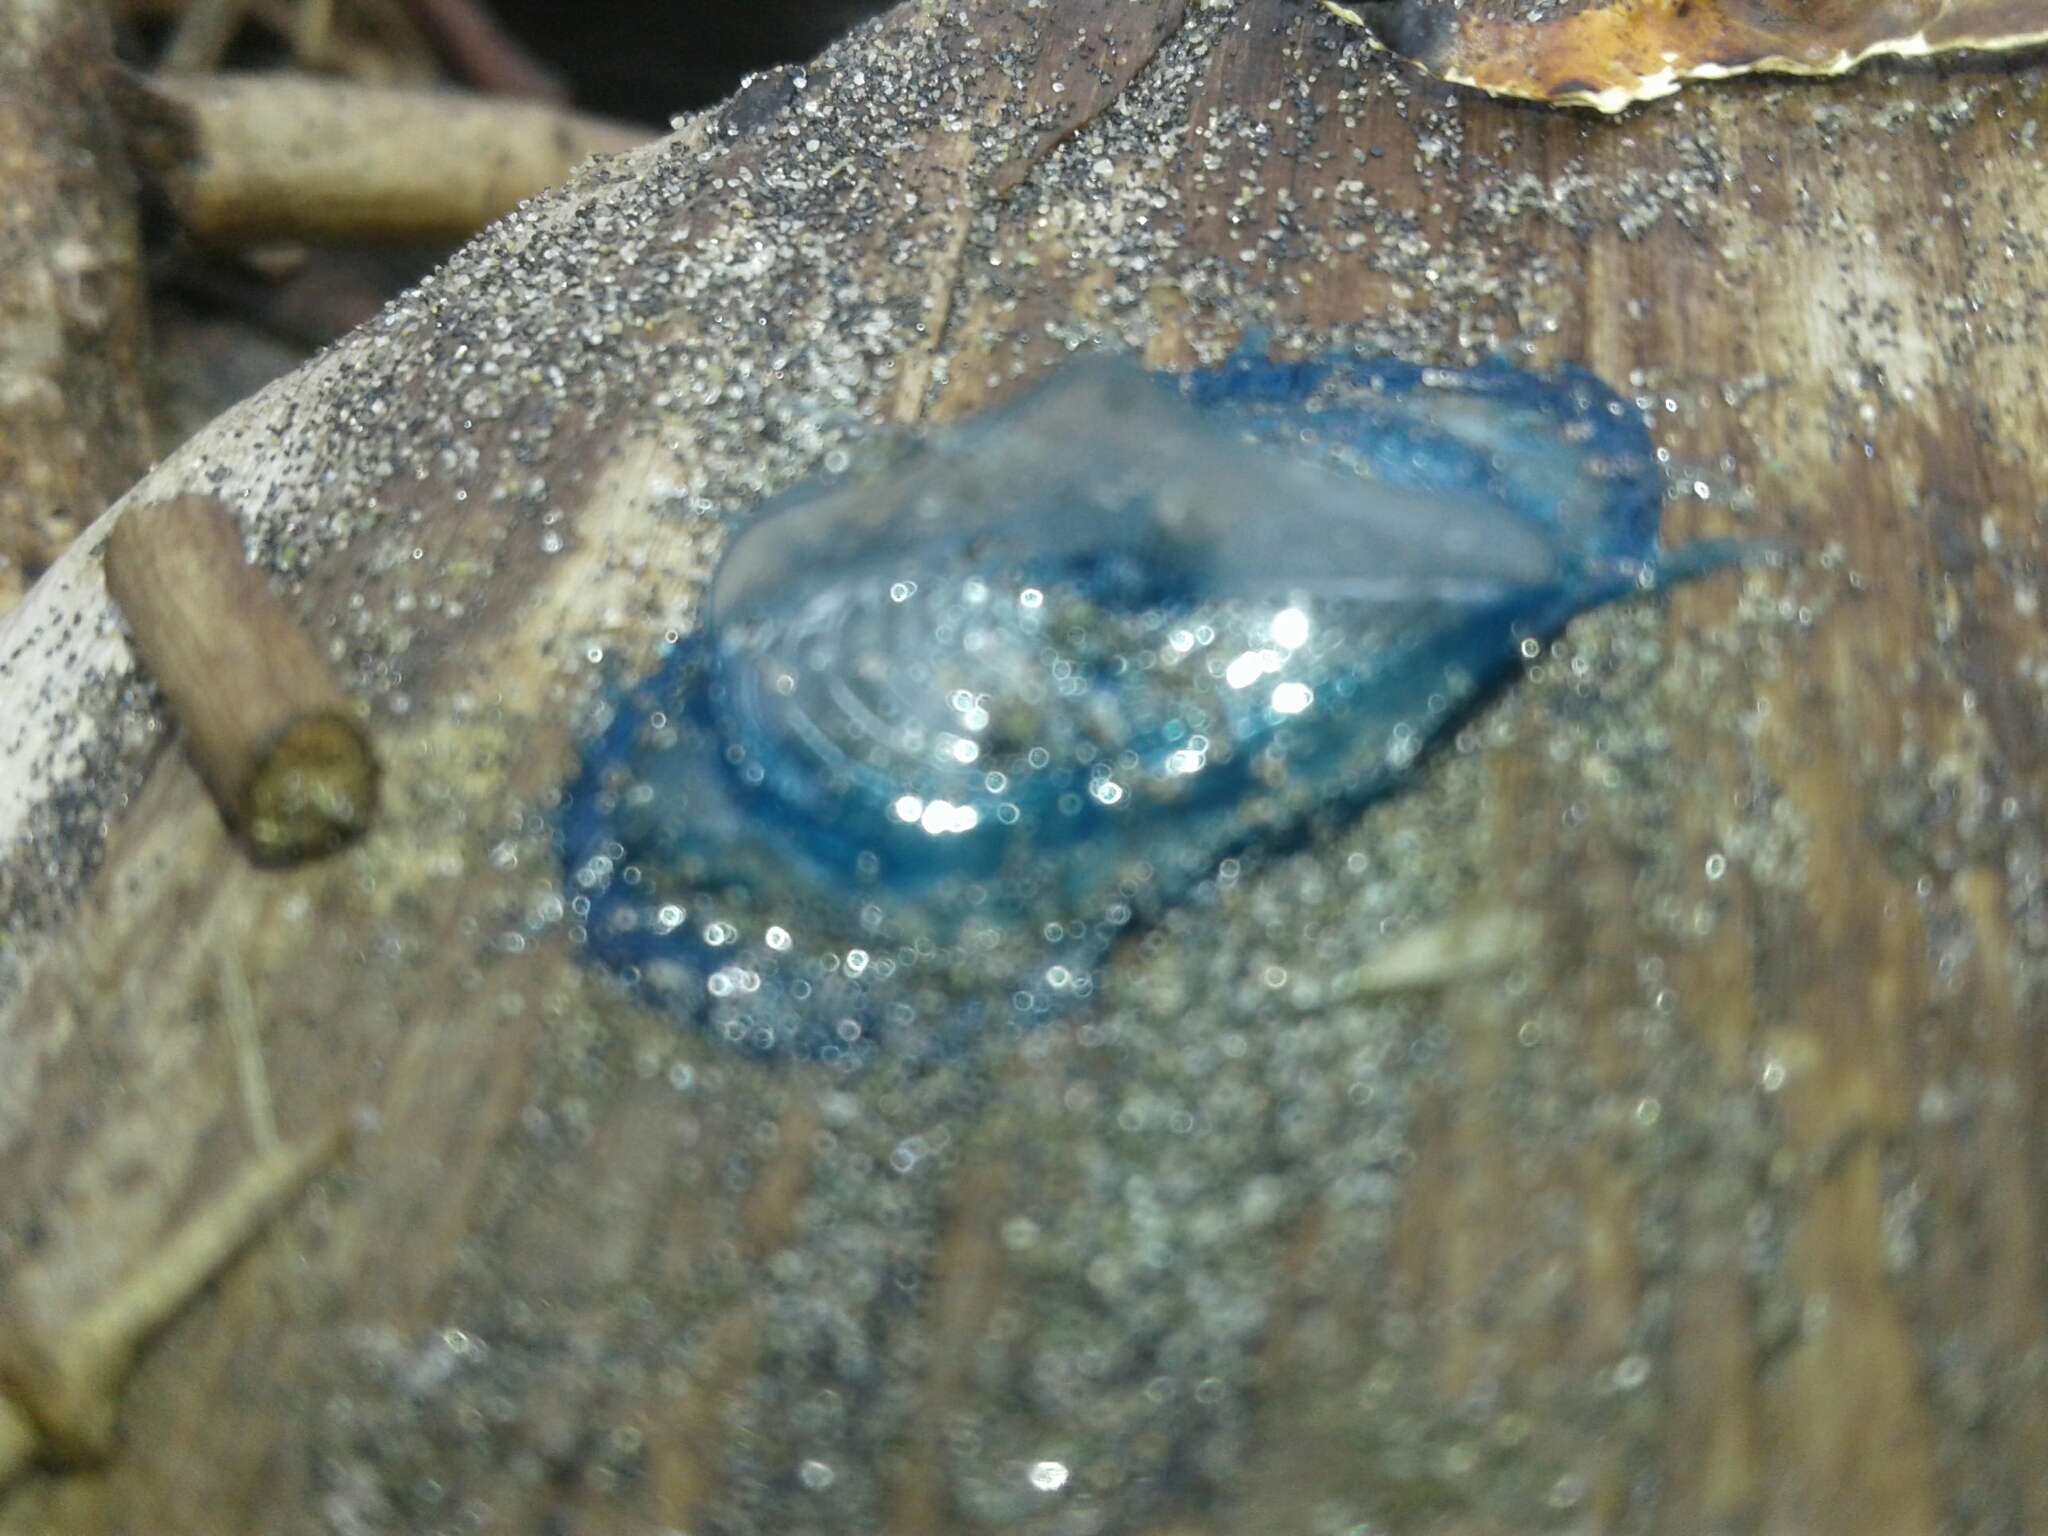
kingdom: Animalia
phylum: Cnidaria
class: Hydrozoa
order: Anthoathecata
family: Porpitidae
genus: Velella
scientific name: Velella velella
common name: By-the-wind-sailor
